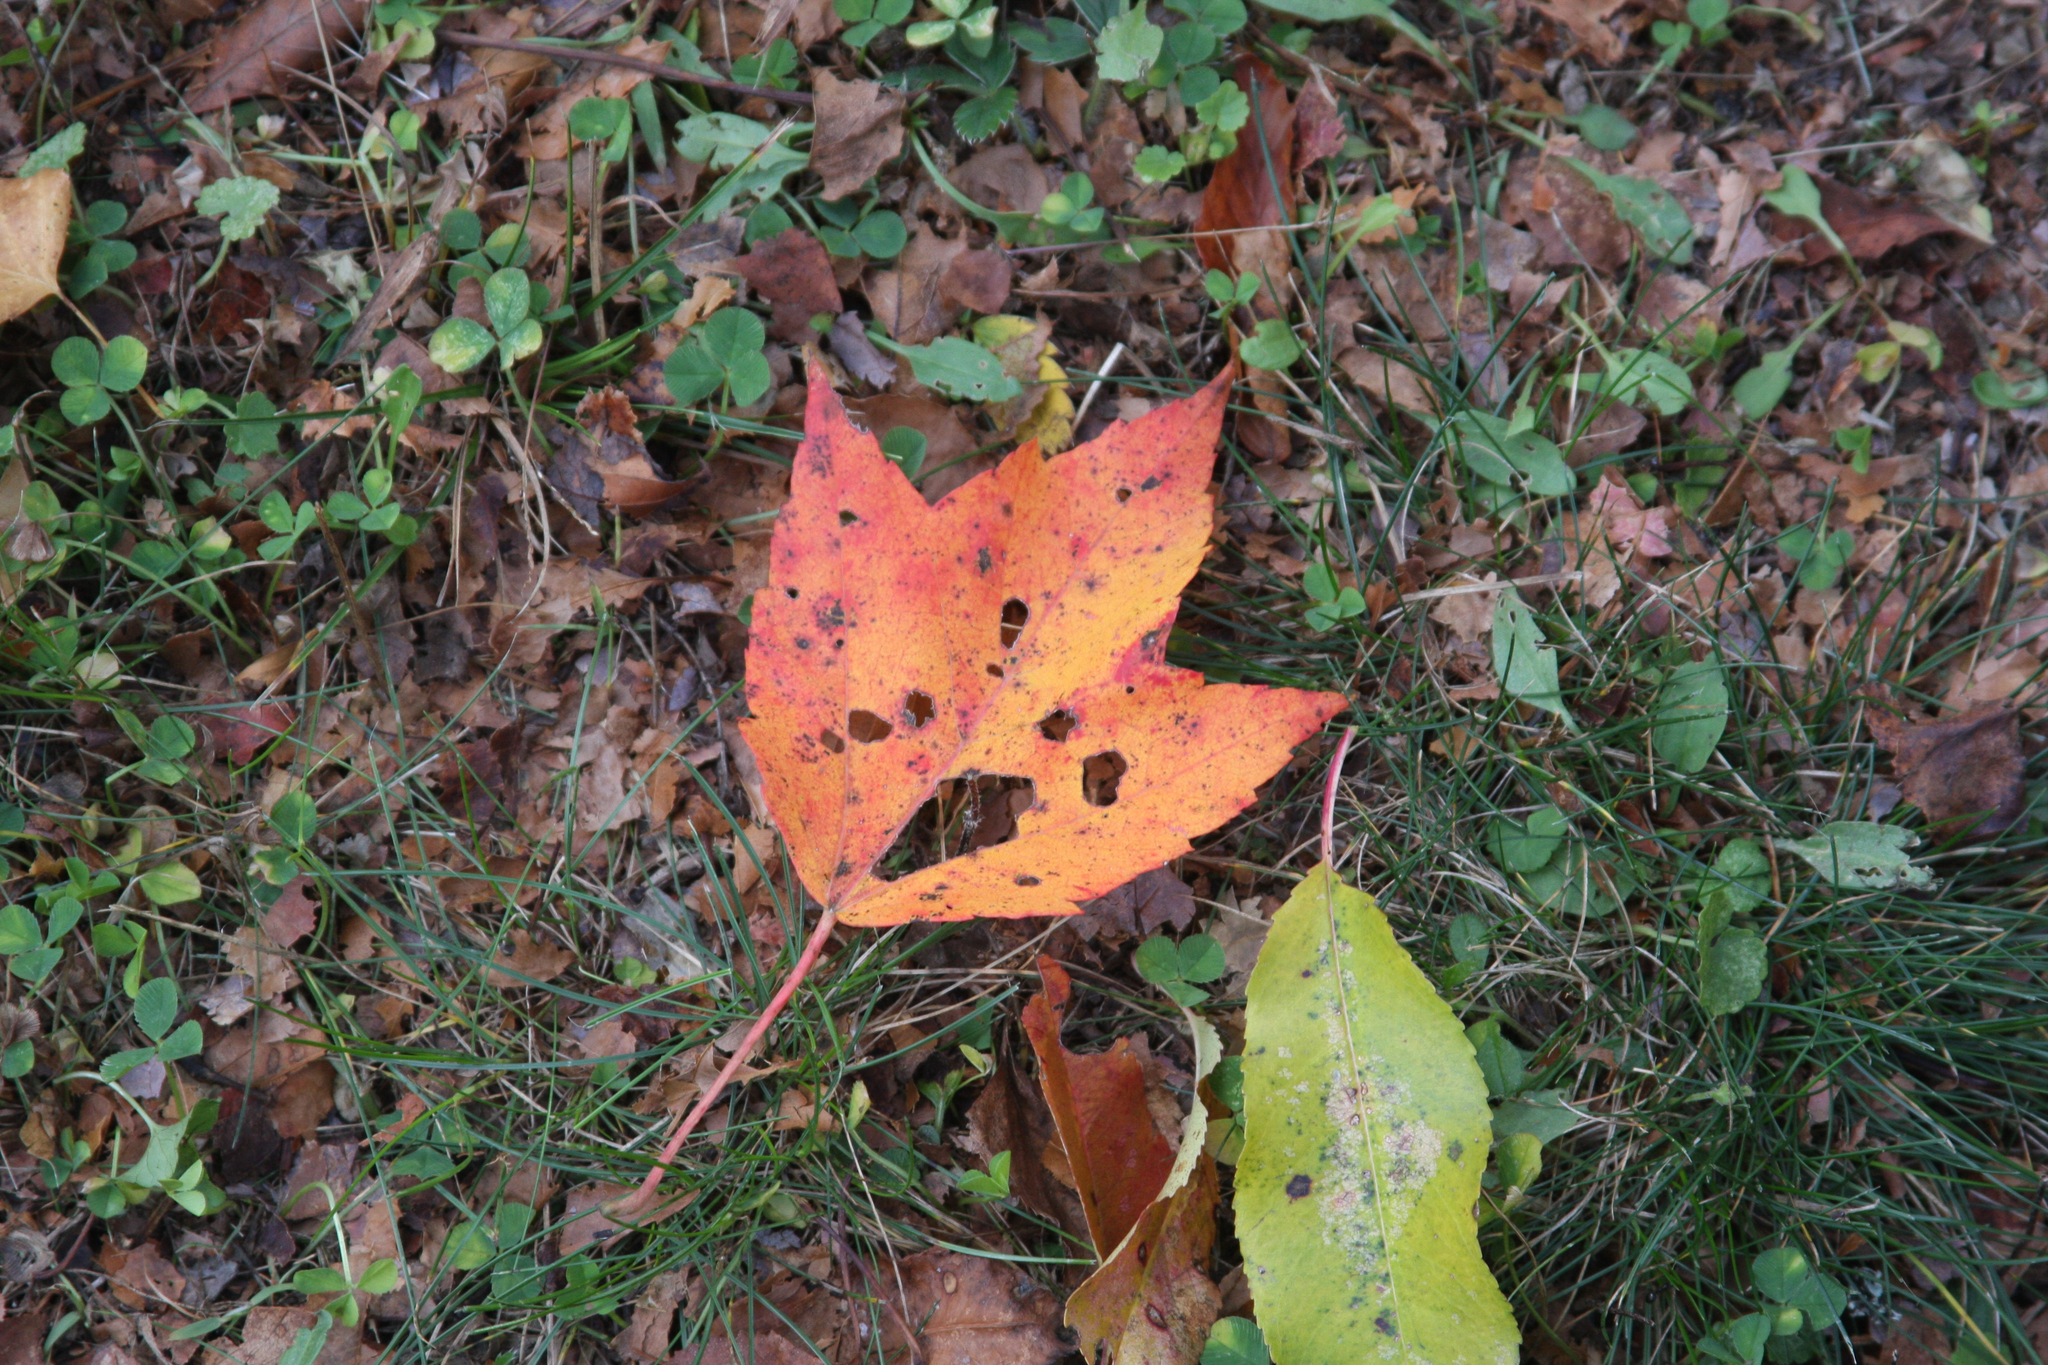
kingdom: Plantae
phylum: Tracheophyta
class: Magnoliopsida
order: Sapindales
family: Sapindaceae
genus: Acer
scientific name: Acer rubrum
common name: Red maple
